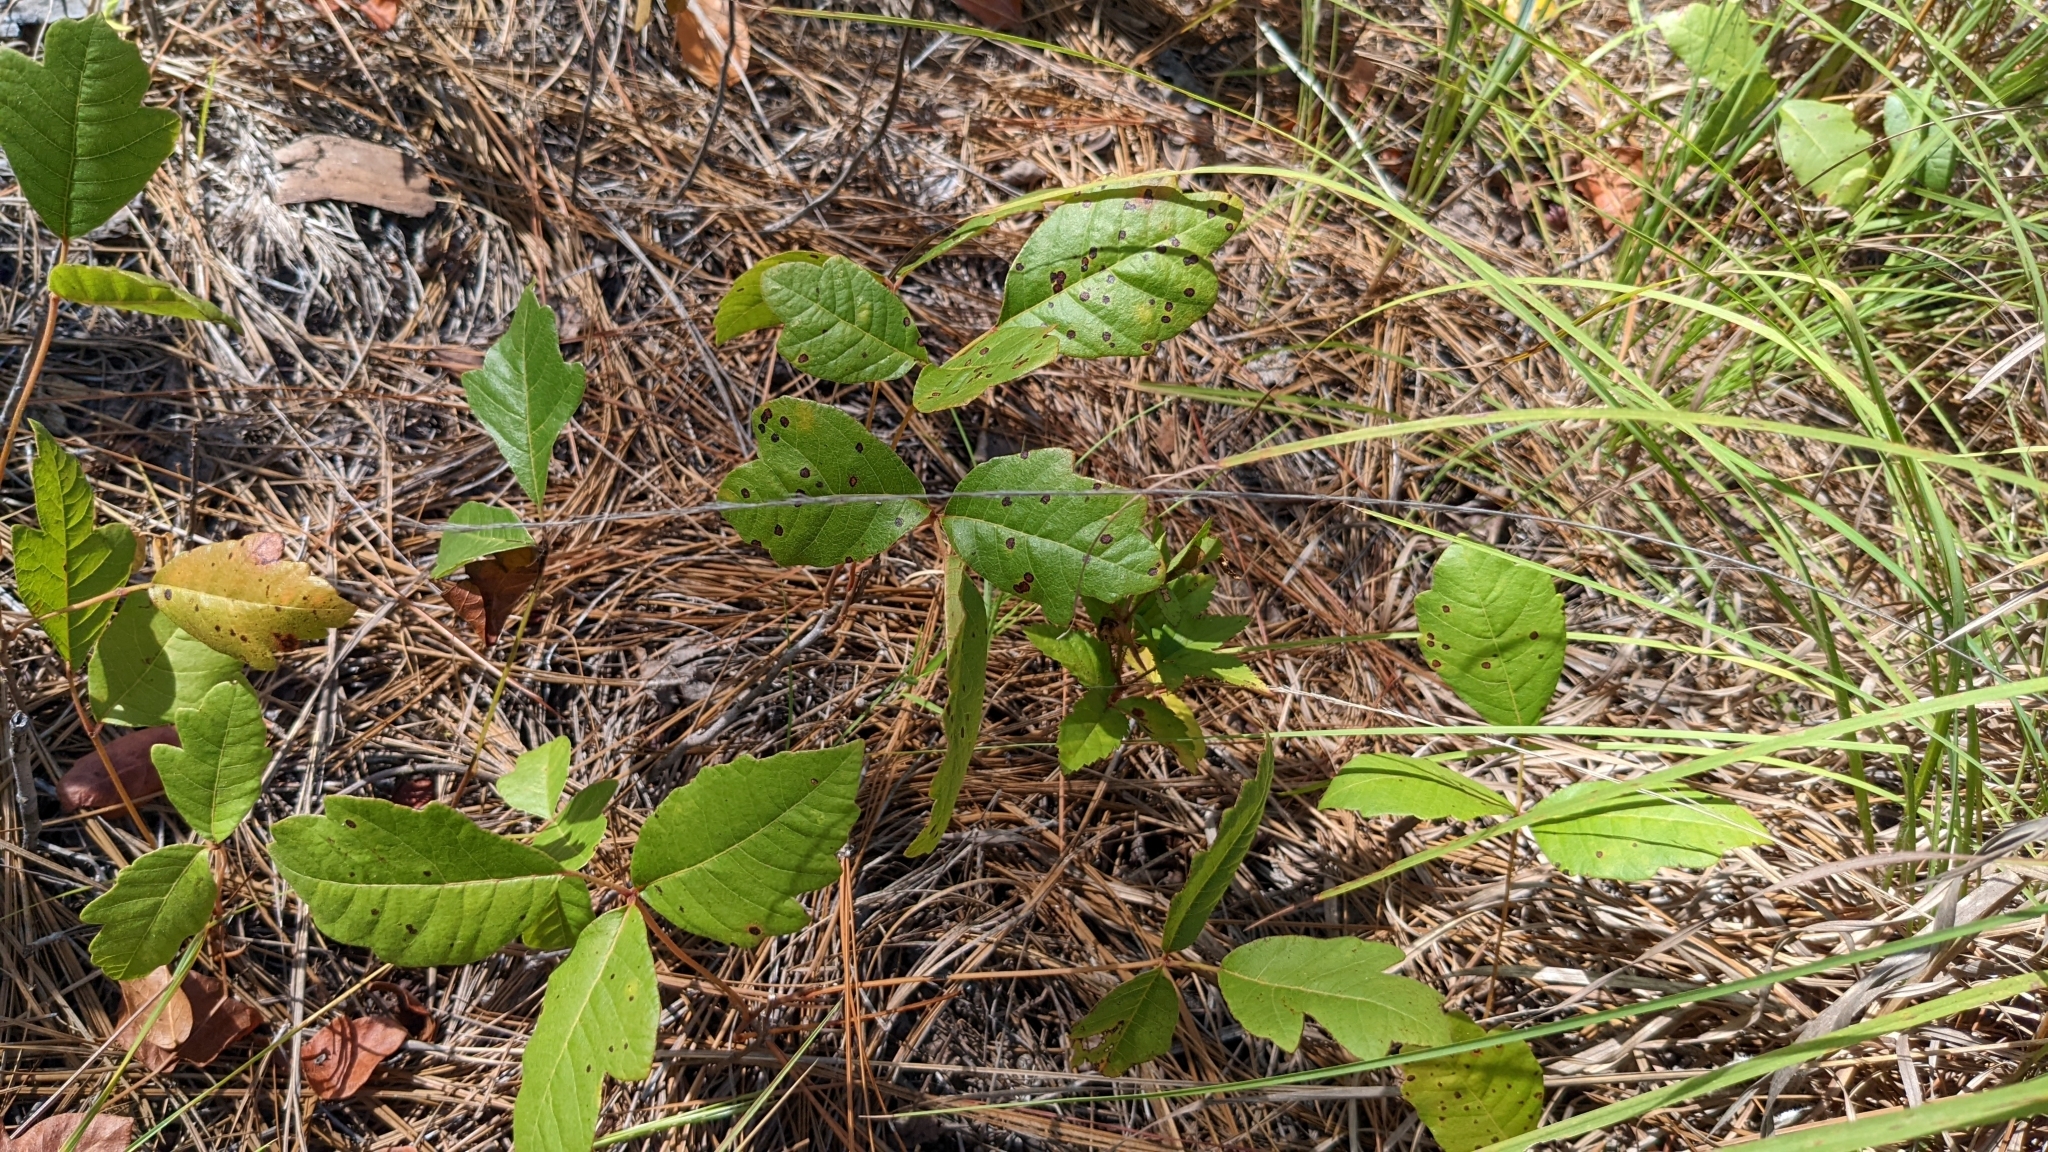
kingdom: Plantae
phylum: Tracheophyta
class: Magnoliopsida
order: Sapindales
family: Anacardiaceae
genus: Toxicodendron
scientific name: Toxicodendron pubescens
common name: Eastern poison-oak
